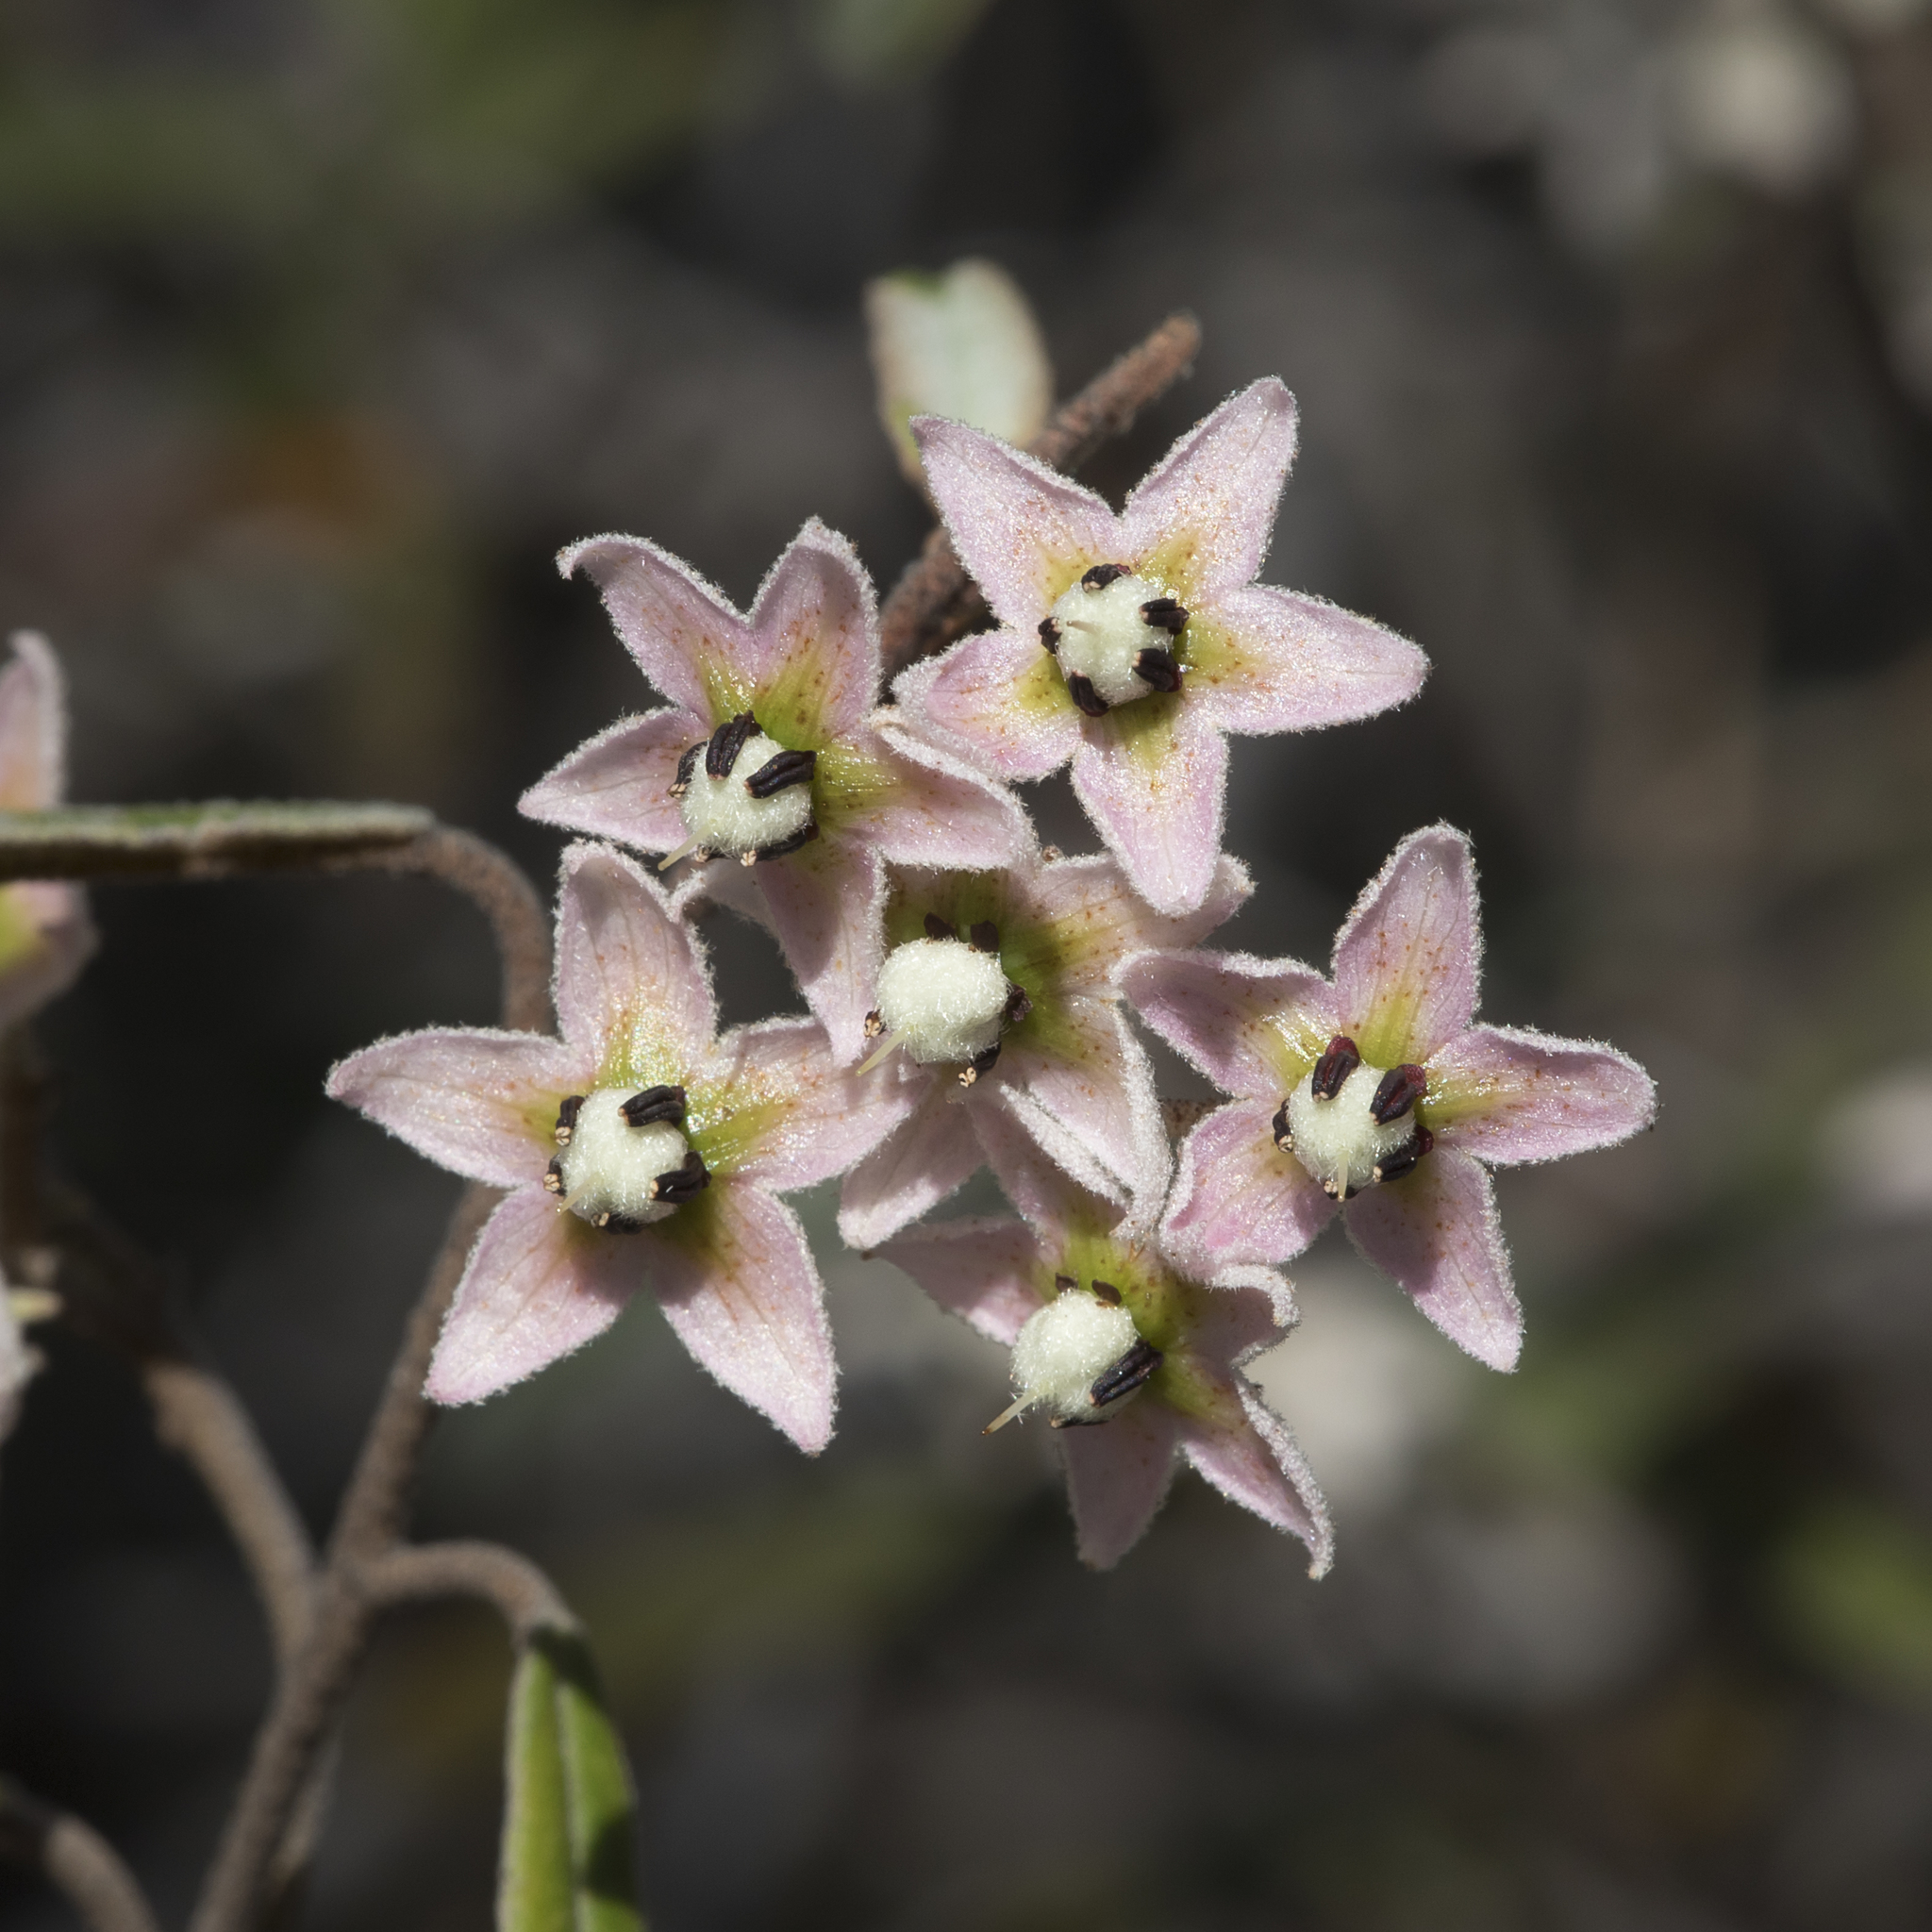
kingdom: Plantae
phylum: Tracheophyta
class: Magnoliopsida
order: Malvales
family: Malvaceae
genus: Lasiopetalum
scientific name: Lasiopetalum behrii
